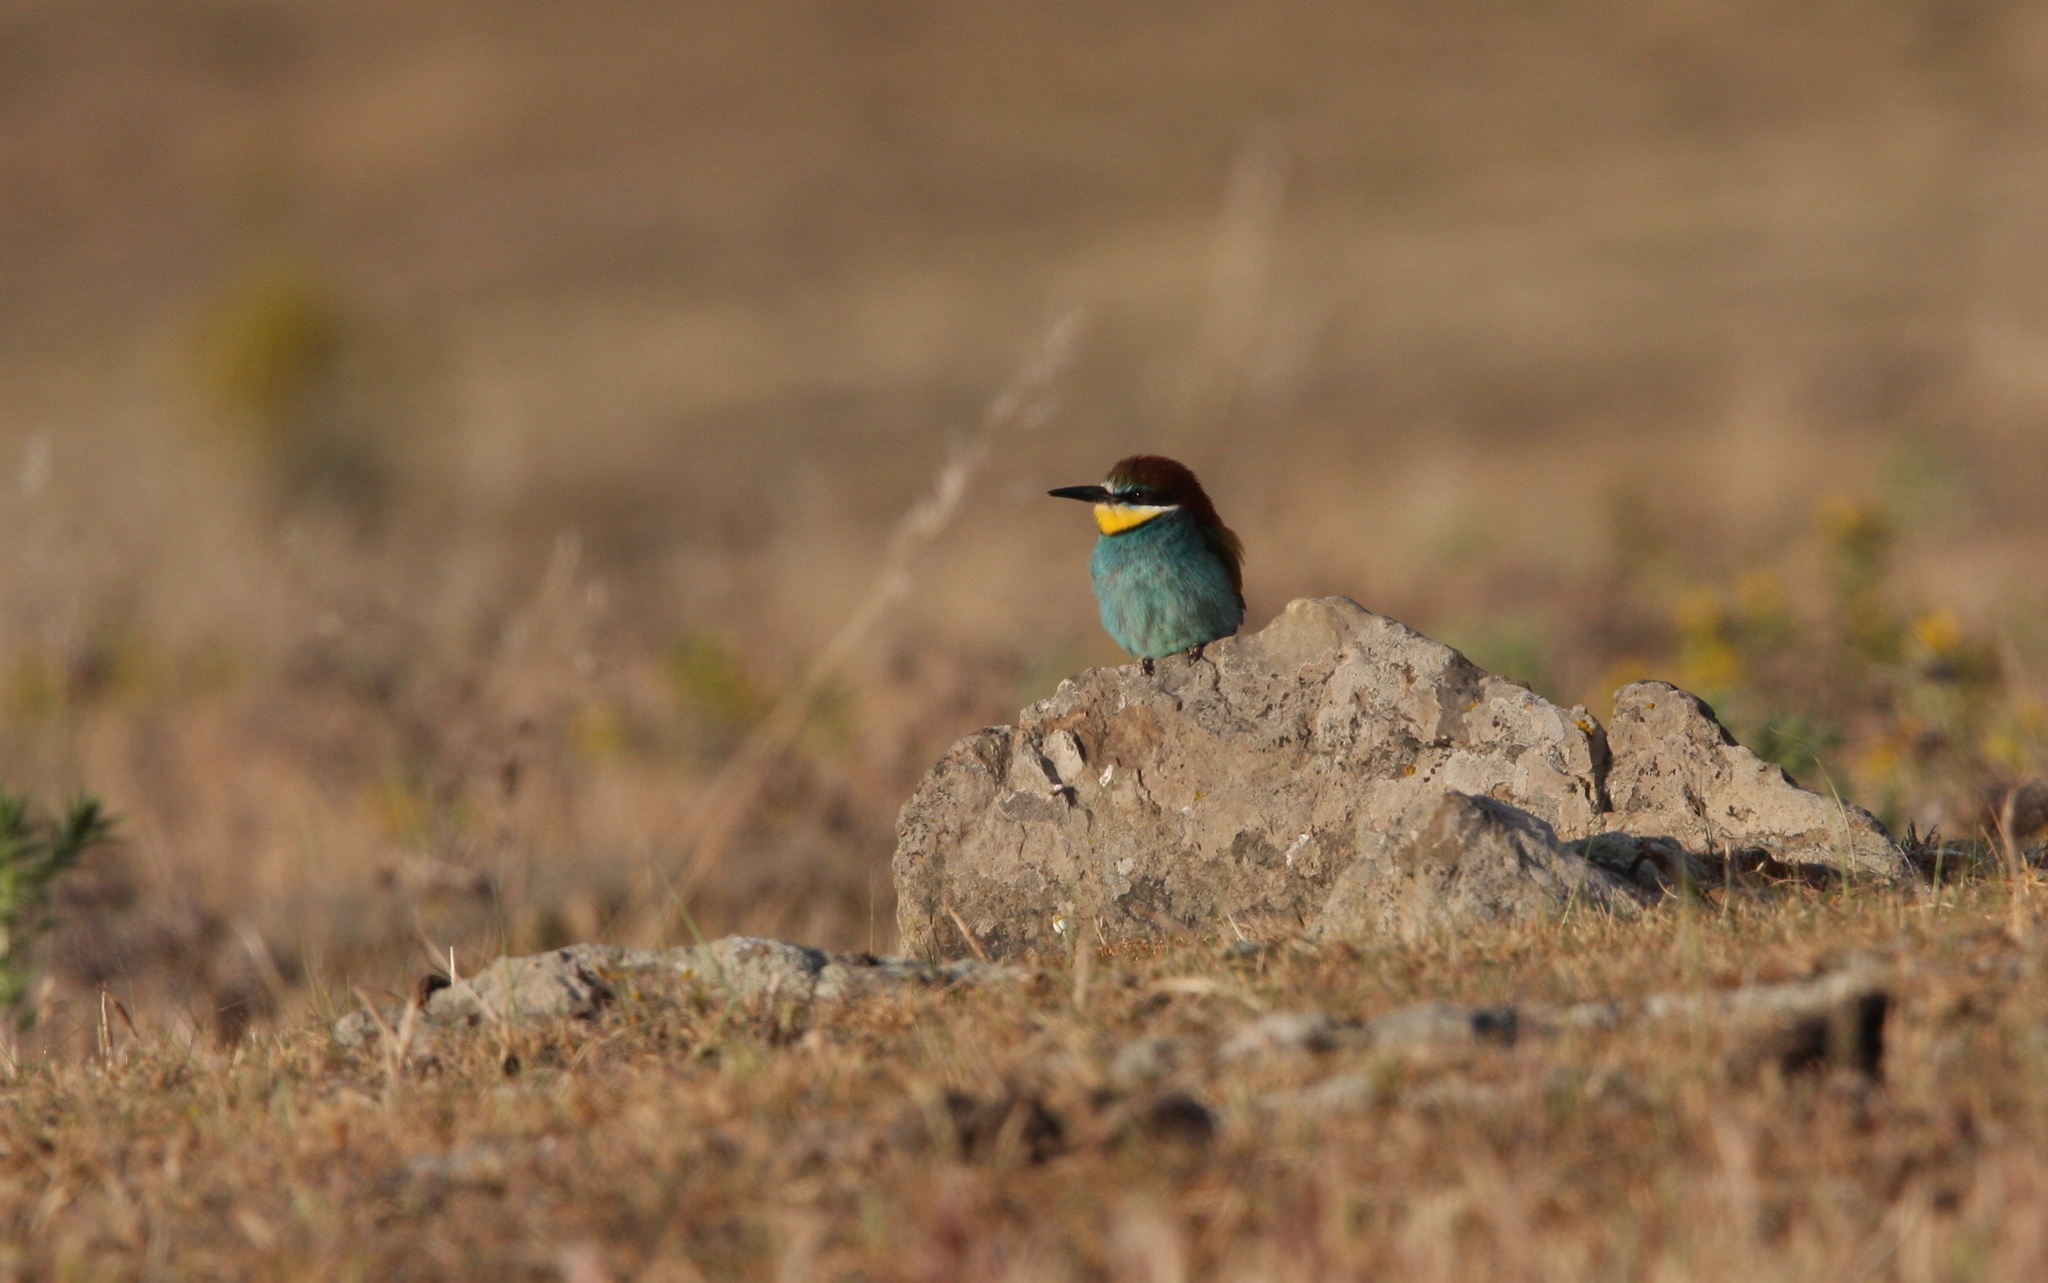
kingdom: Animalia
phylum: Chordata
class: Aves
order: Coraciiformes
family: Meropidae
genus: Merops
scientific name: Merops apiaster
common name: European bee-eater
